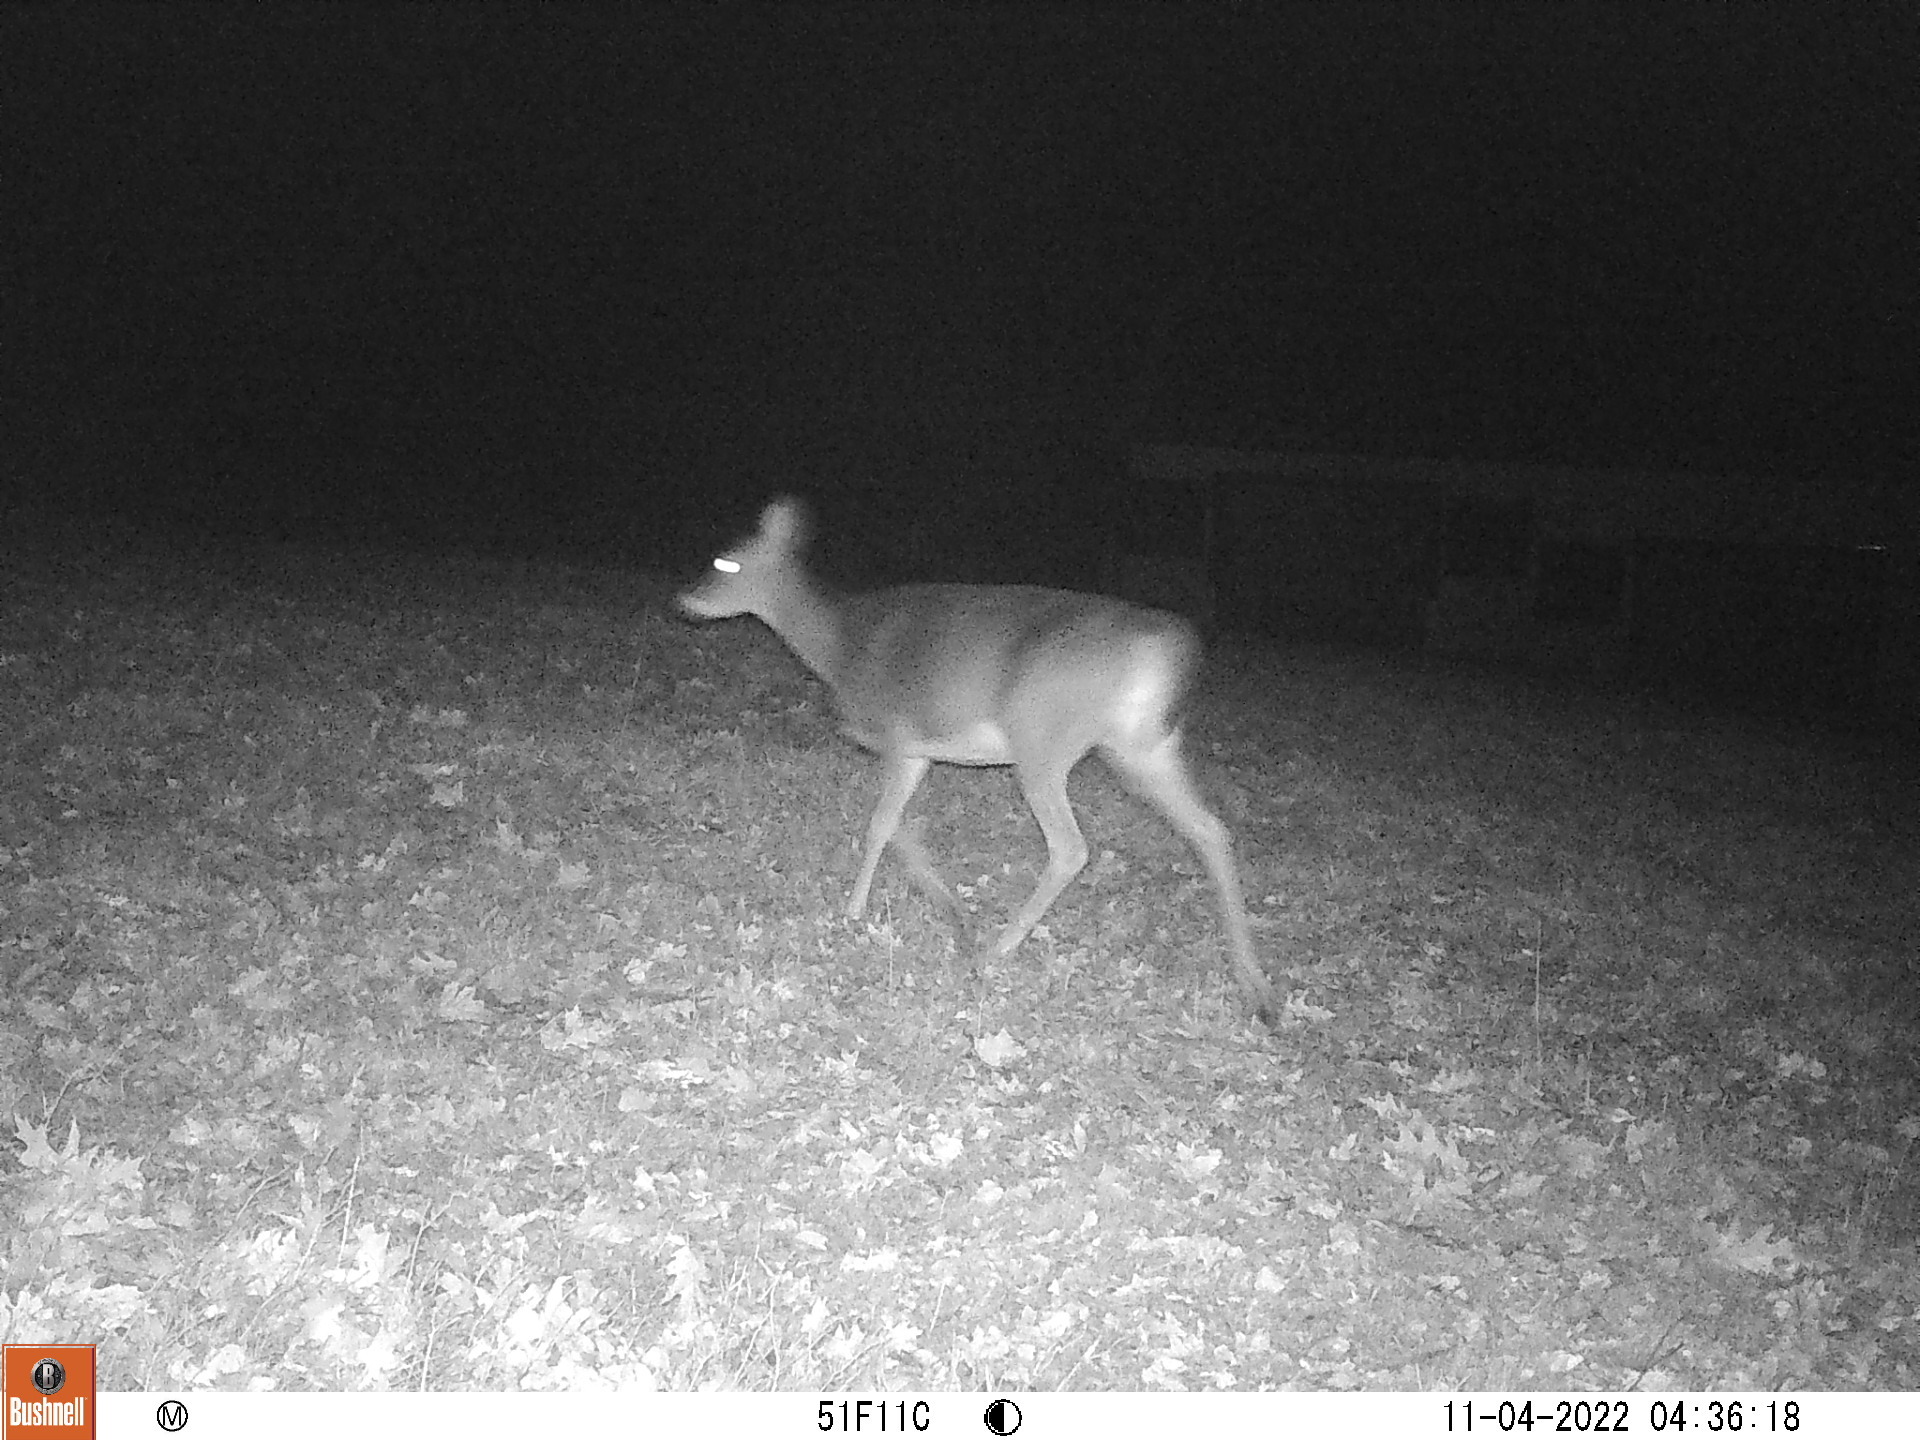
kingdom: Animalia
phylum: Chordata
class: Mammalia
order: Artiodactyla
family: Cervidae
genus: Odocoileus
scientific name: Odocoileus virginianus
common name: White-tailed deer
